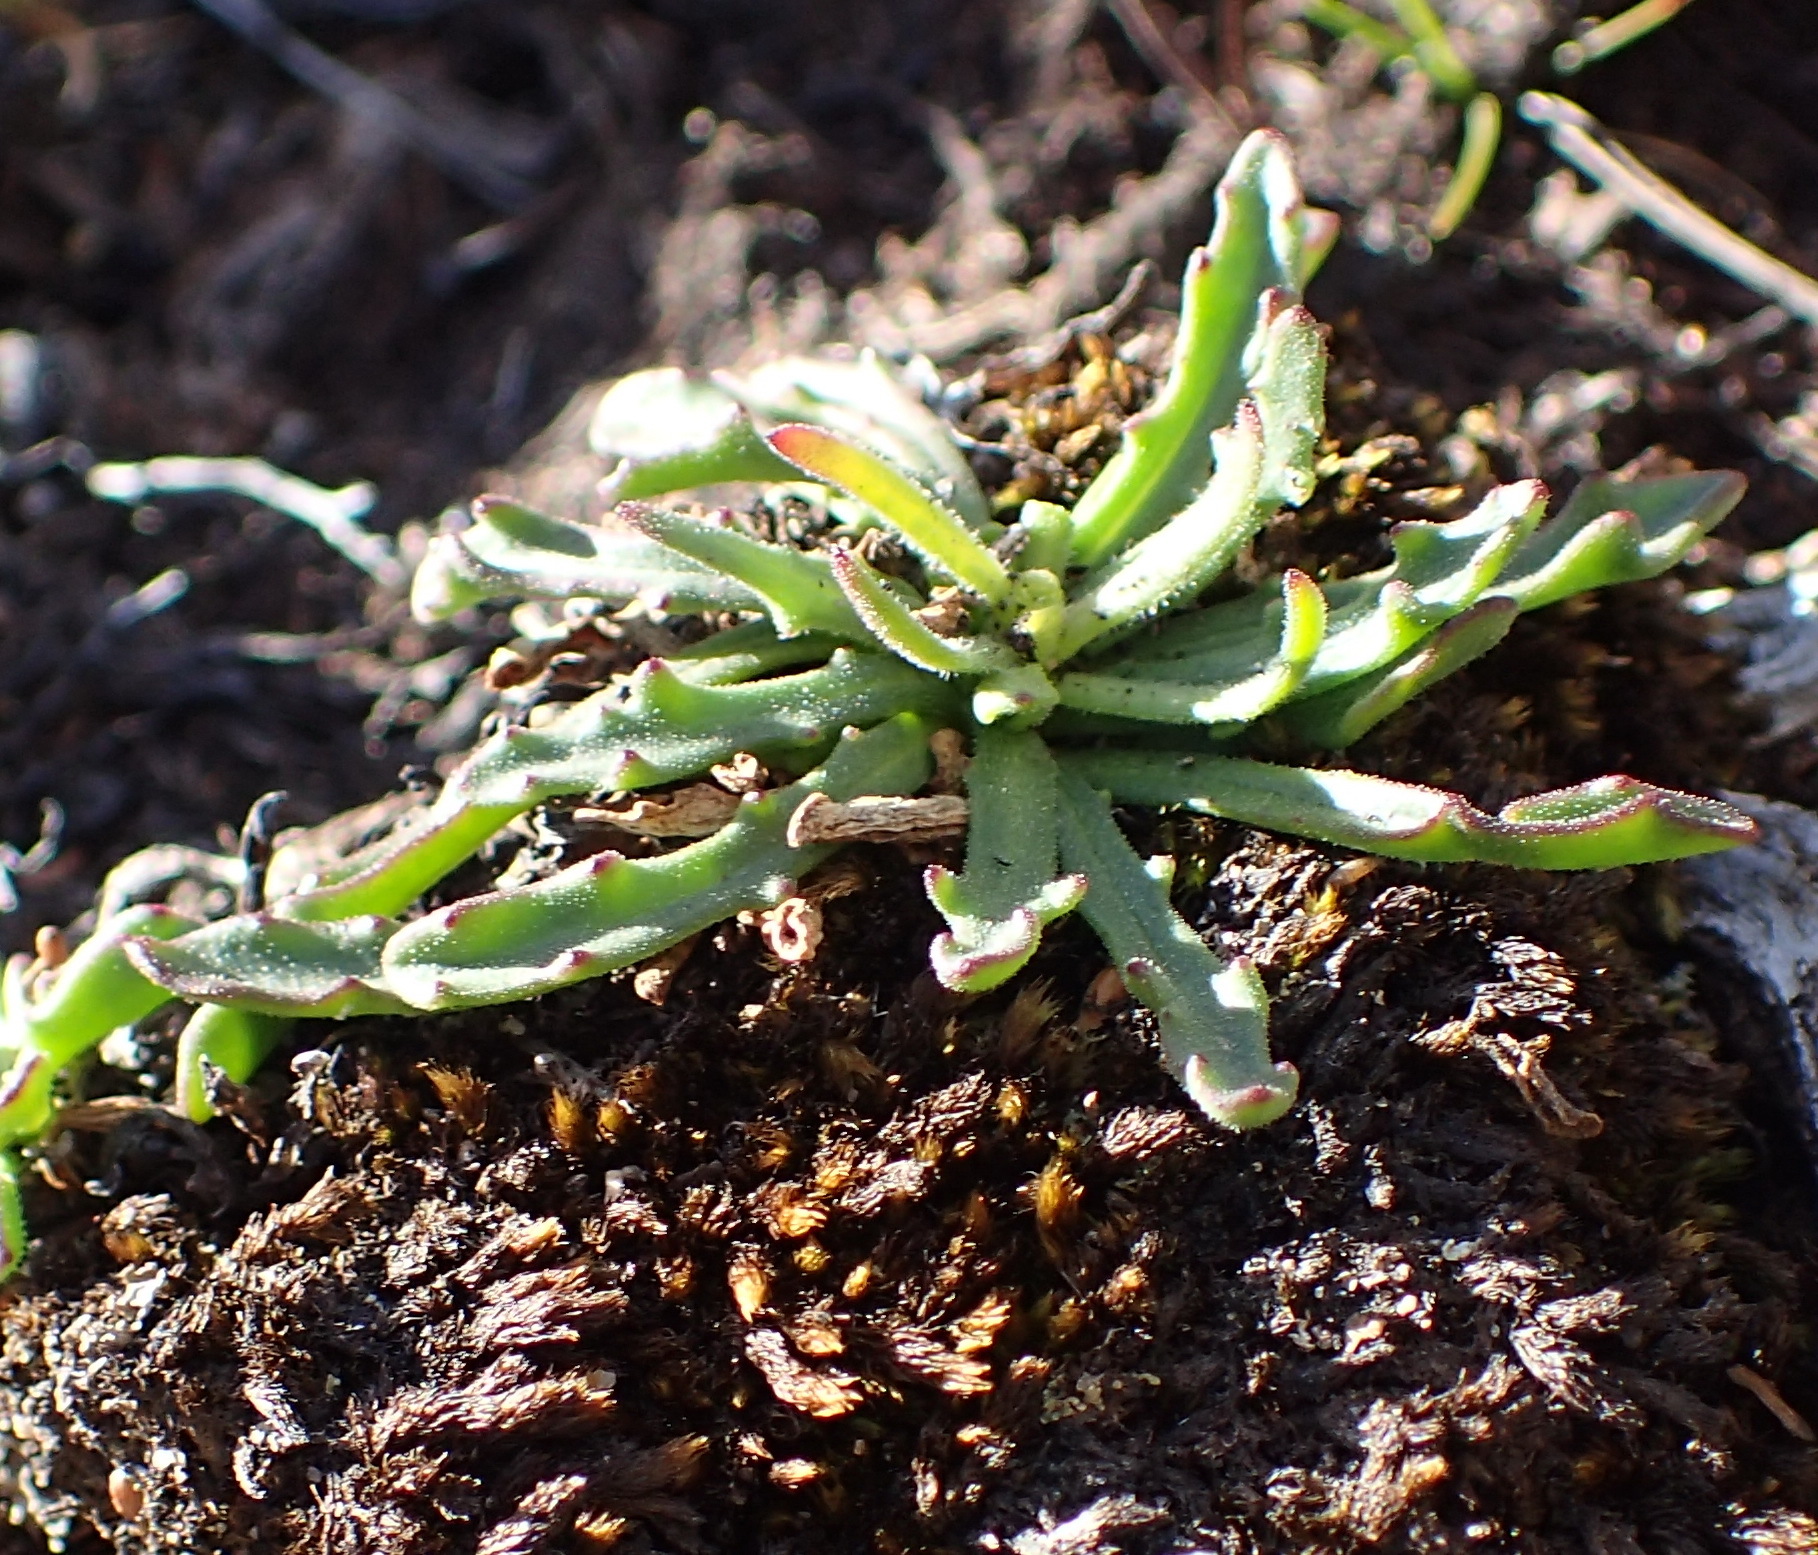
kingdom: Plantae
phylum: Tracheophyta
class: Magnoliopsida
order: Asterales
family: Asteraceae
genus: Dimorphotheca
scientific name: Dimorphotheca montana
